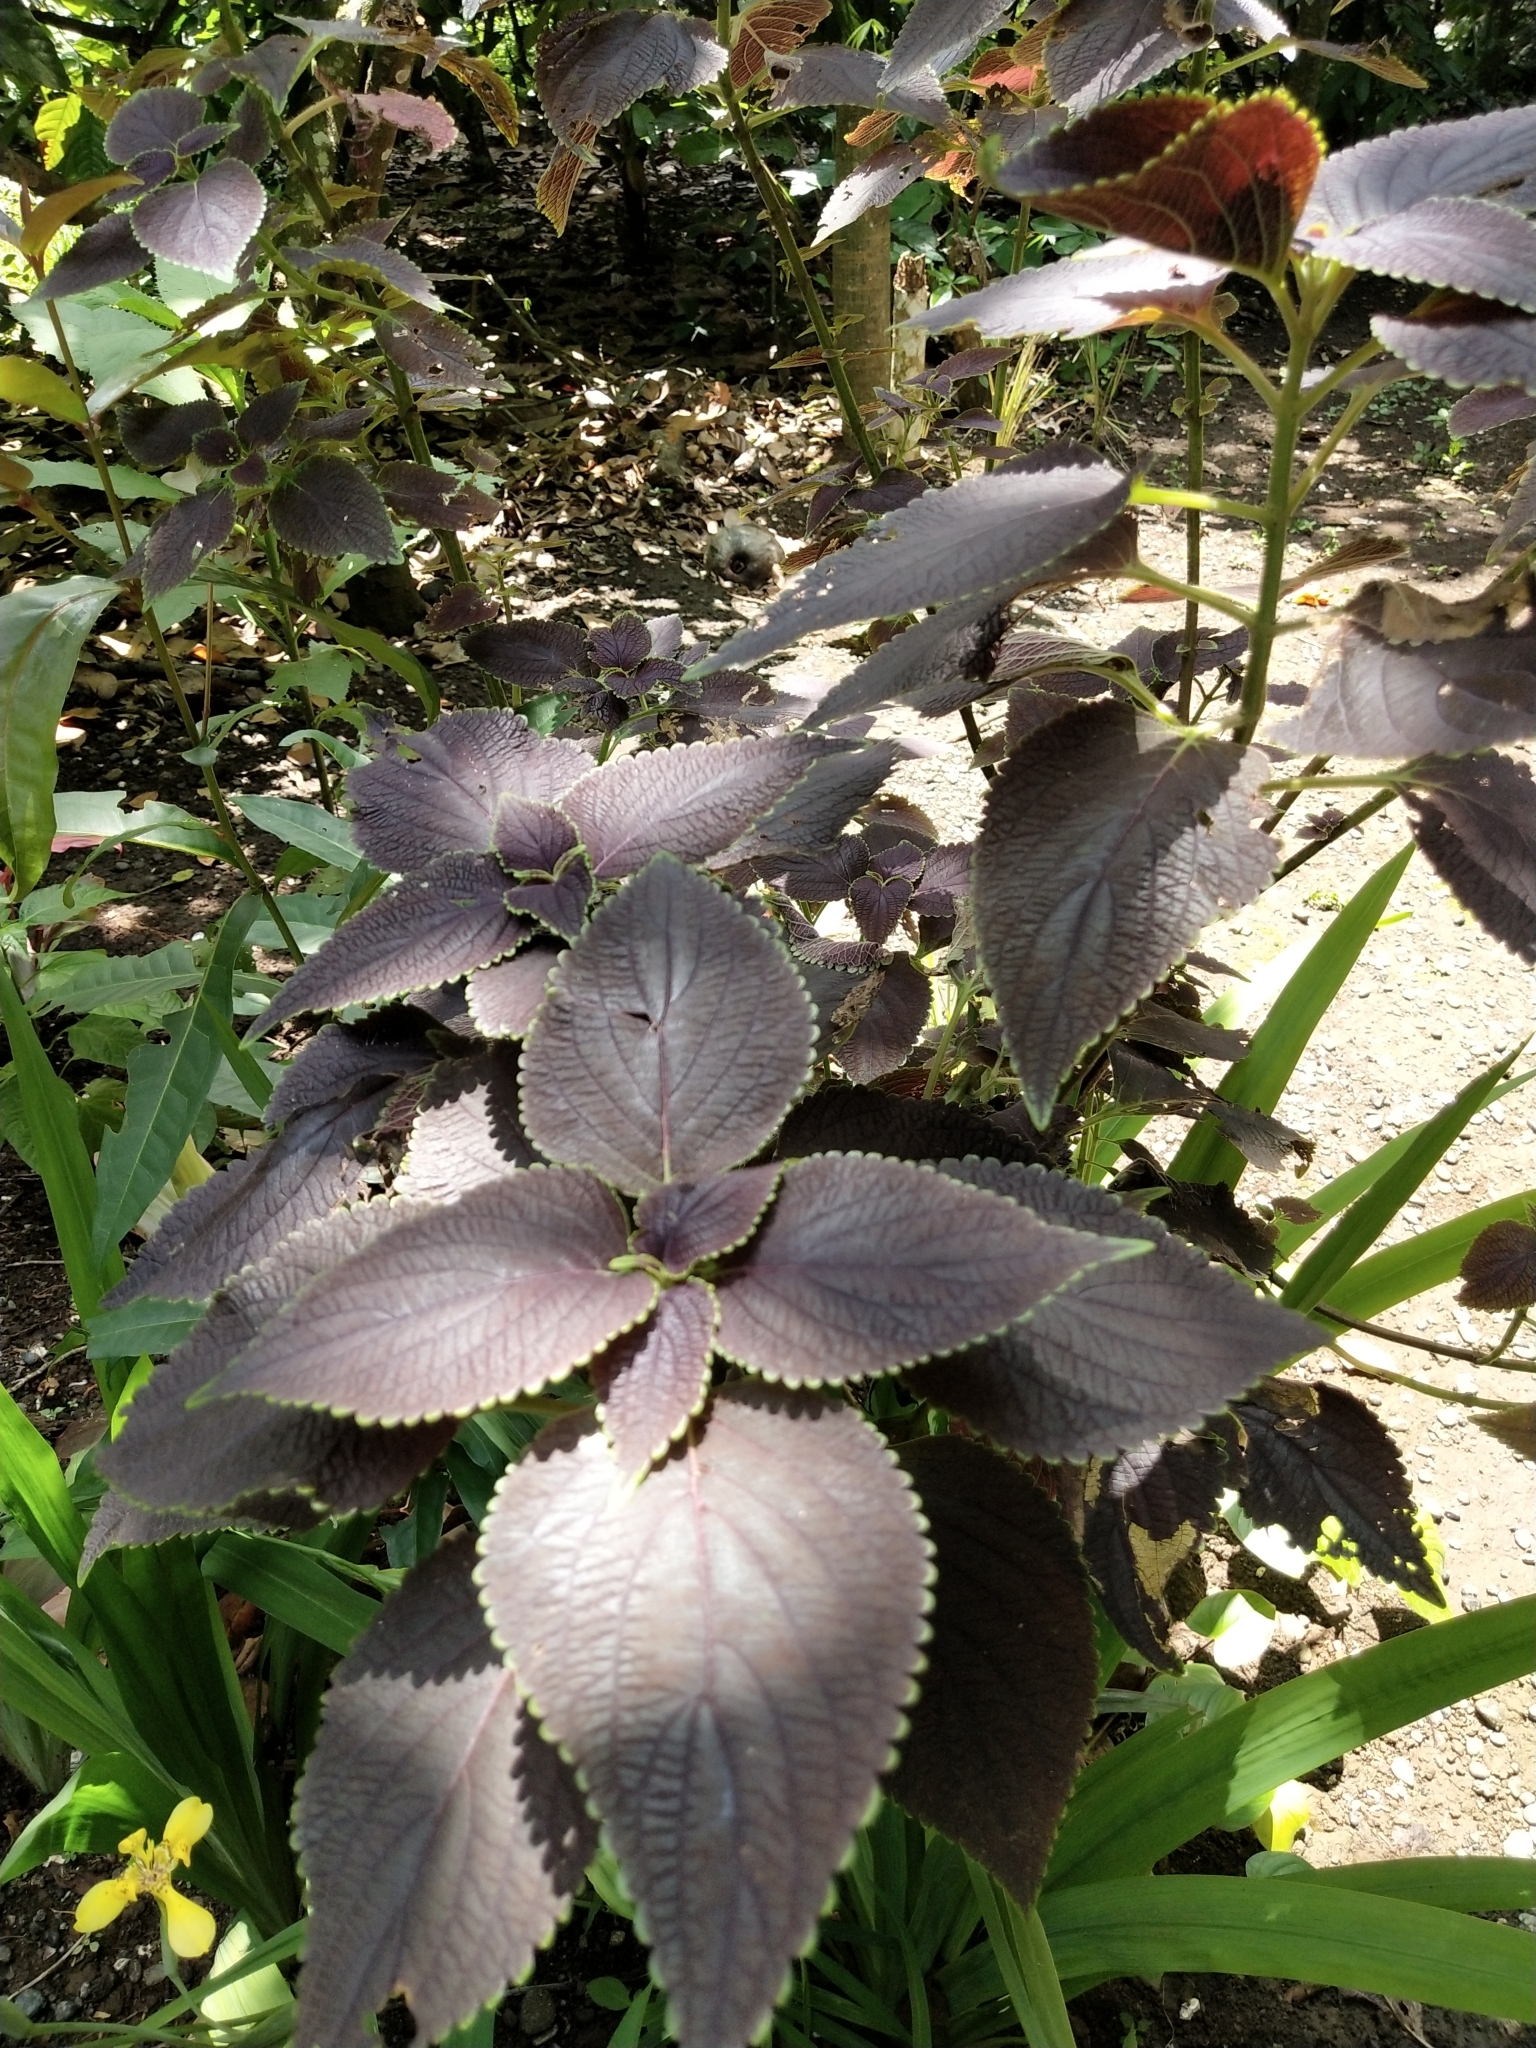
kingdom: Plantae
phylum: Tracheophyta
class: Magnoliopsida
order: Lamiales
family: Lamiaceae
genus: Coleus
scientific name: Coleus scutellarioides
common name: Coleus
